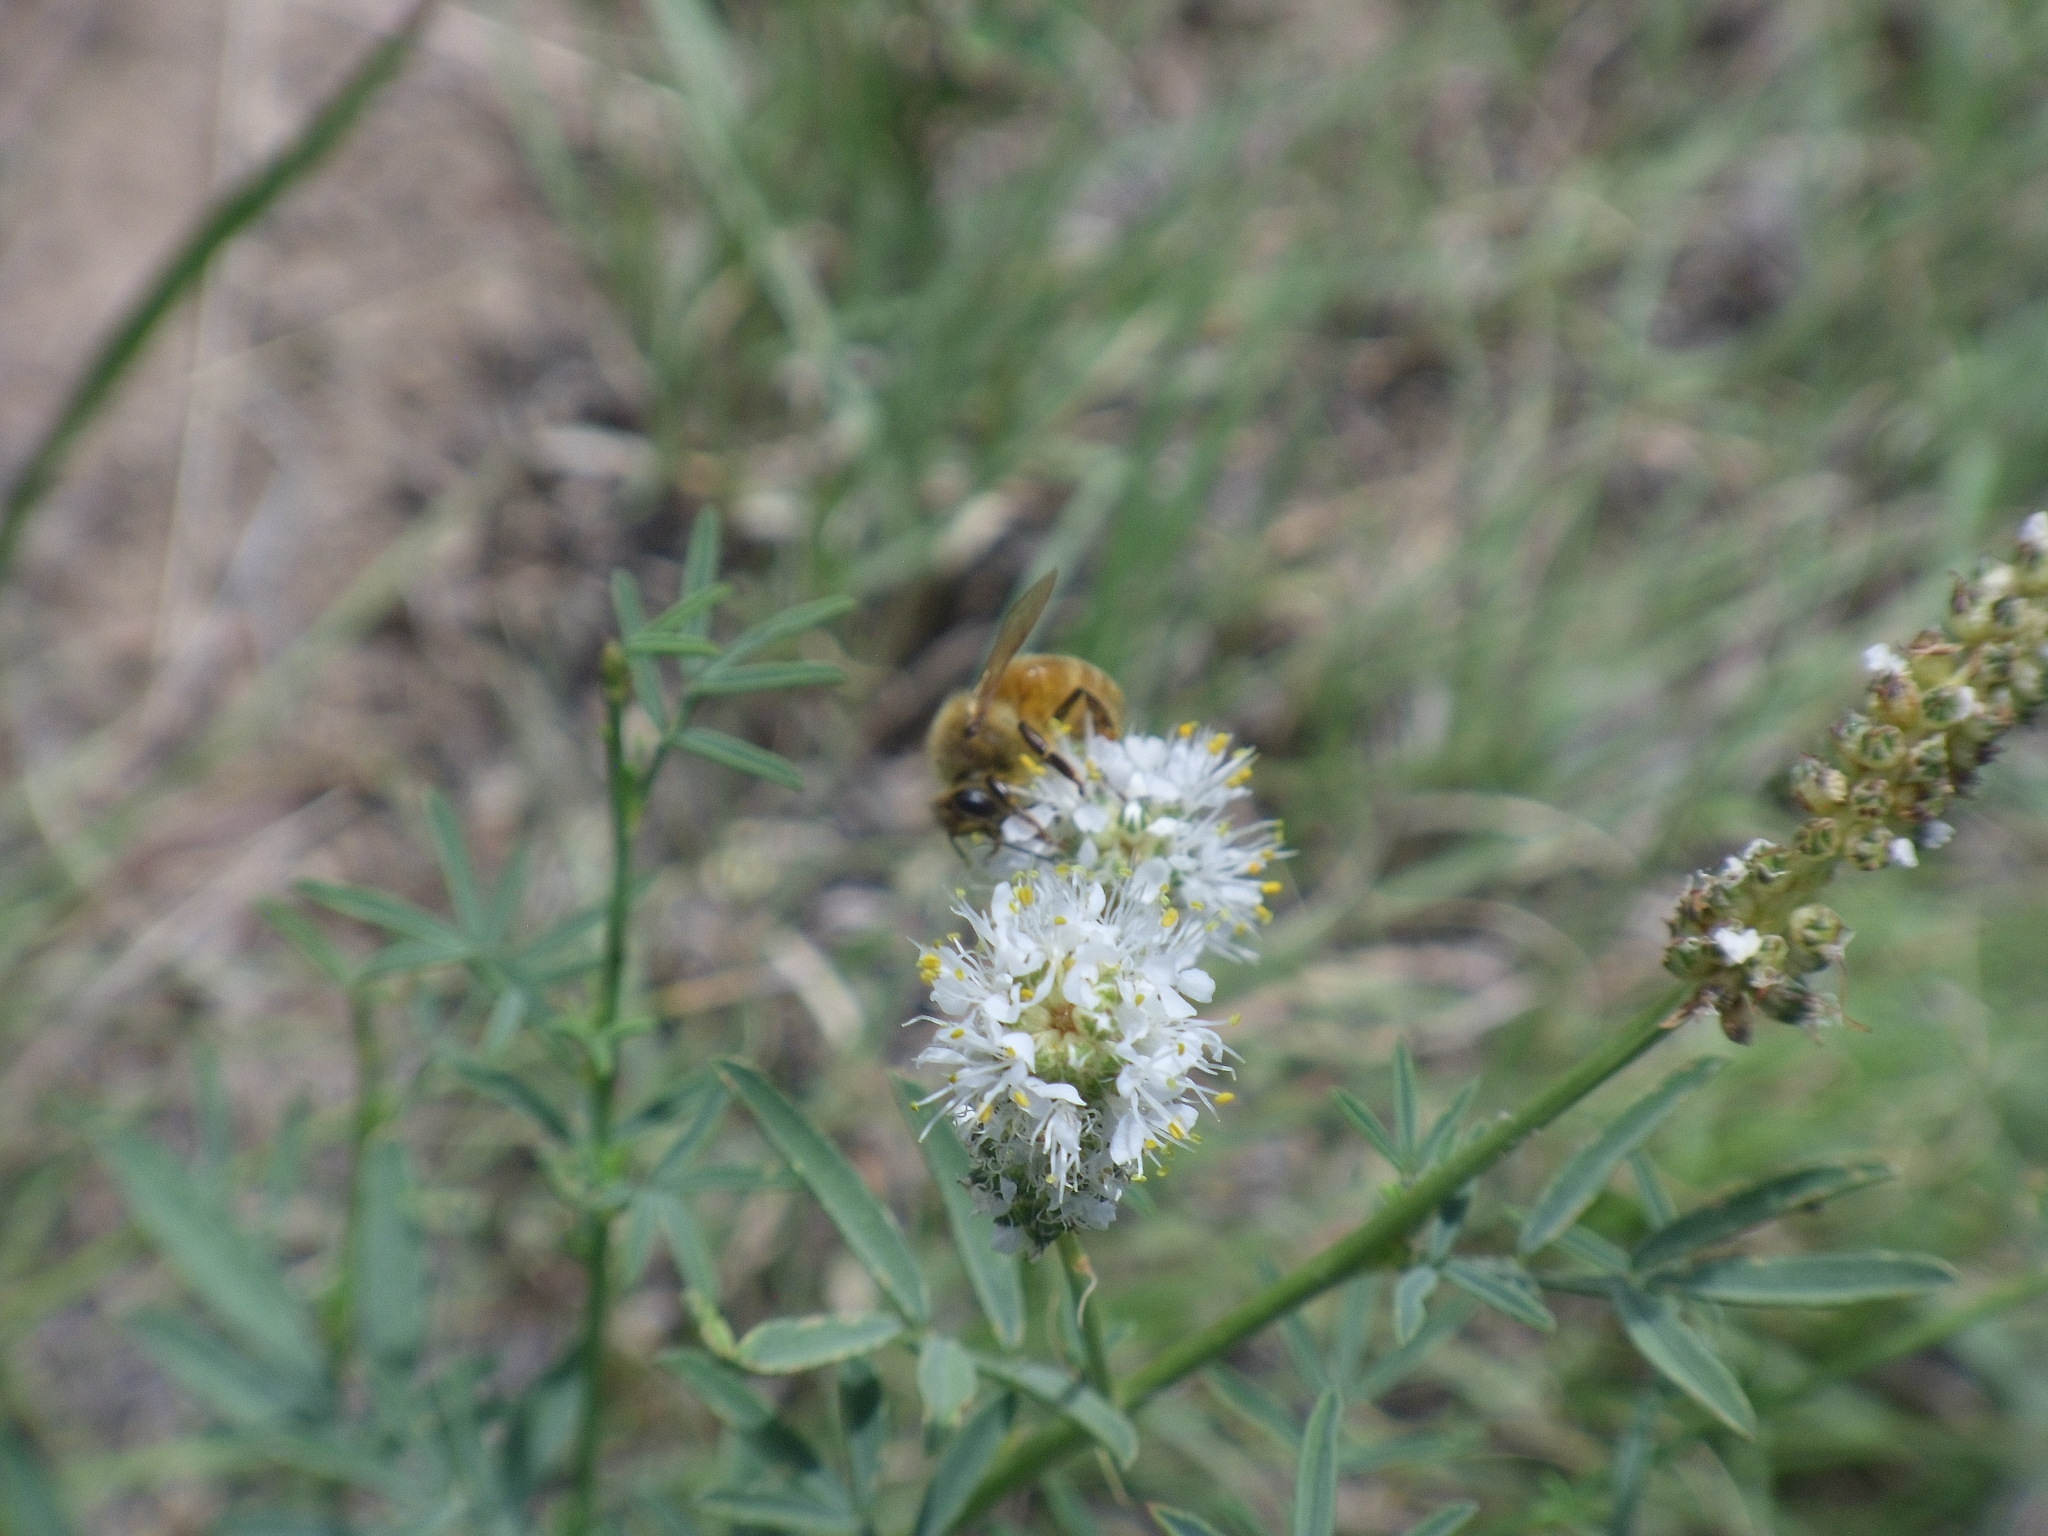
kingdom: Animalia
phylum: Arthropoda
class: Insecta
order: Hymenoptera
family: Apidae
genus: Apis
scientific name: Apis mellifera
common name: Honey bee
